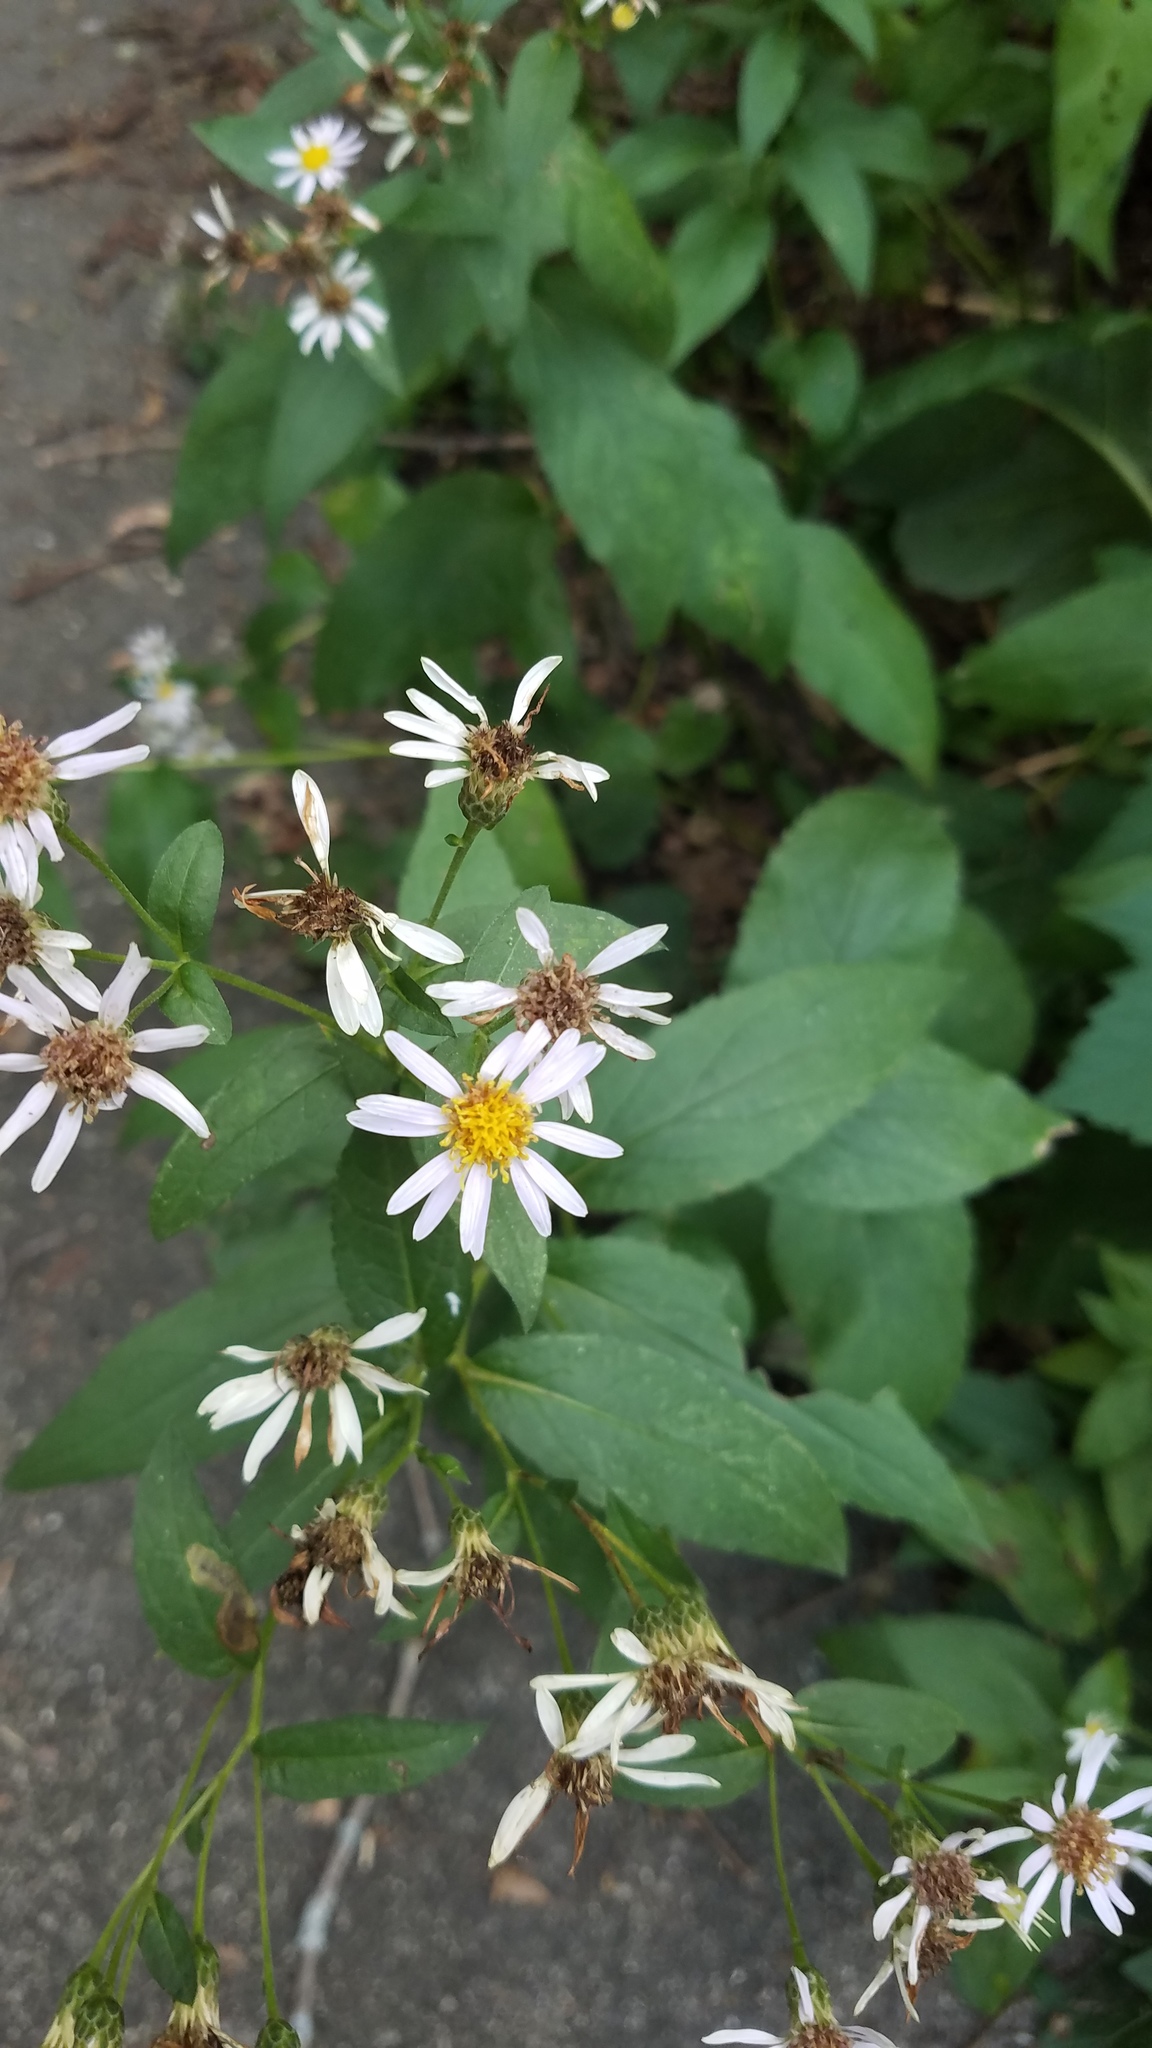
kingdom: Plantae
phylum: Tracheophyta
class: Magnoliopsida
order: Asterales
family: Asteraceae
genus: Eurybia
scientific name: Eurybia macrophylla
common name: Big-leaved aster
